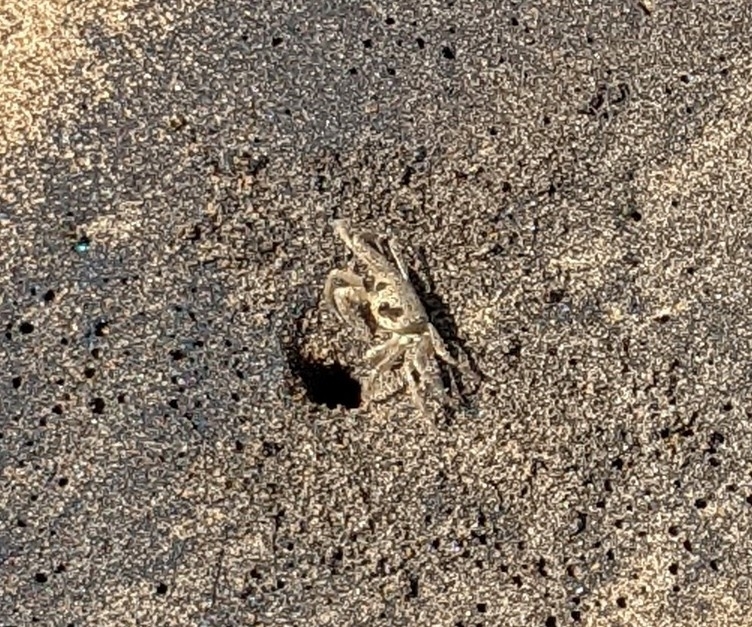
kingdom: Animalia
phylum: Arthropoda
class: Malacostraca
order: Decapoda
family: Ocypodidae
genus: Ocypode
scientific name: Ocypode quadrata
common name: Ghost crab
